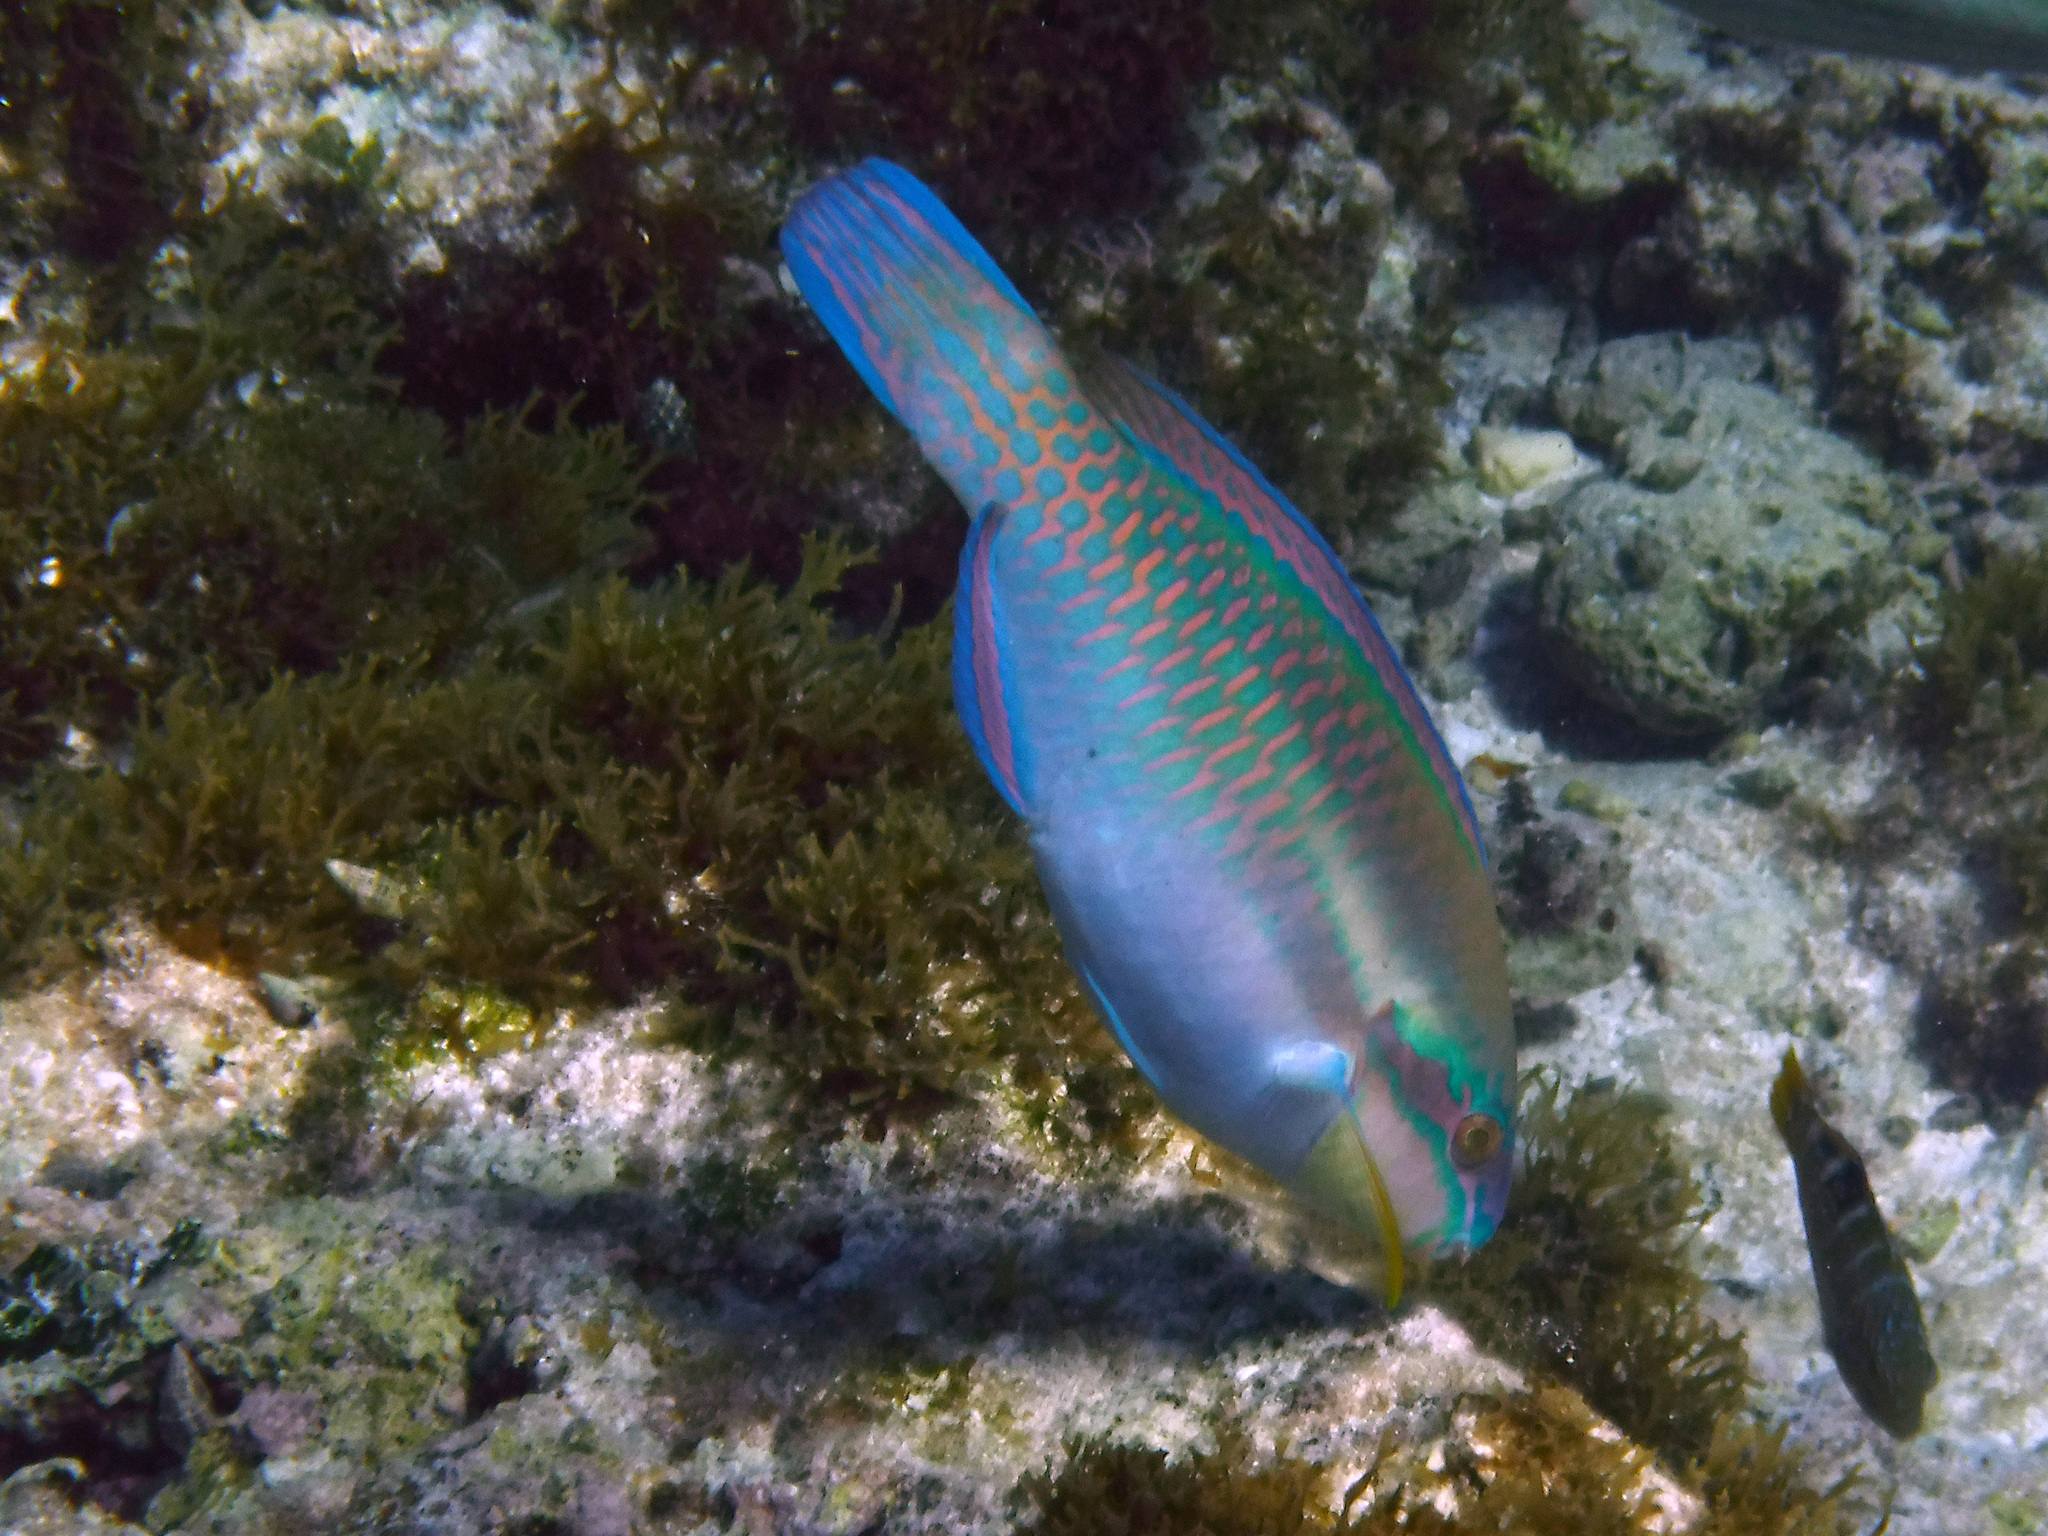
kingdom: Animalia
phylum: Chordata
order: Perciformes
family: Scaridae
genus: Scarus
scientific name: Scarus iseri
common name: Striped parrotfish
